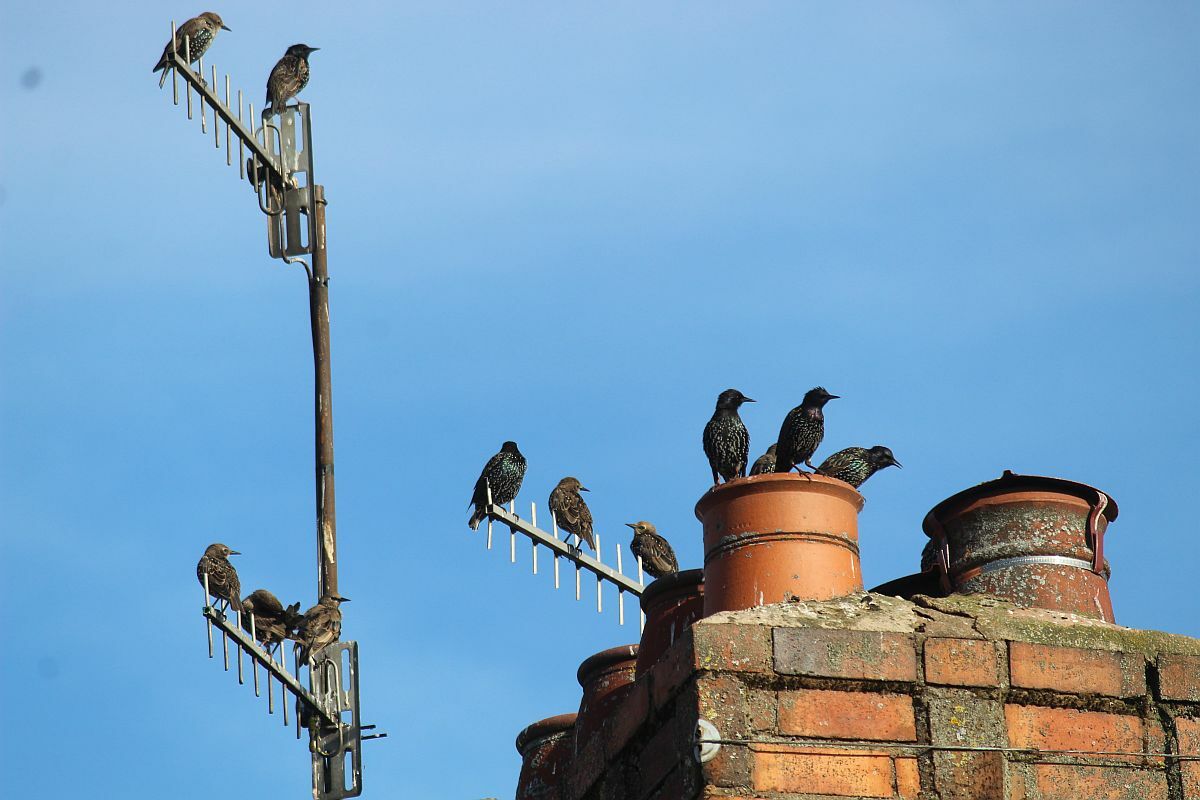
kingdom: Animalia
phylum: Chordata
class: Aves
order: Passeriformes
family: Sturnidae
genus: Sturnus
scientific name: Sturnus vulgaris
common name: Common starling
